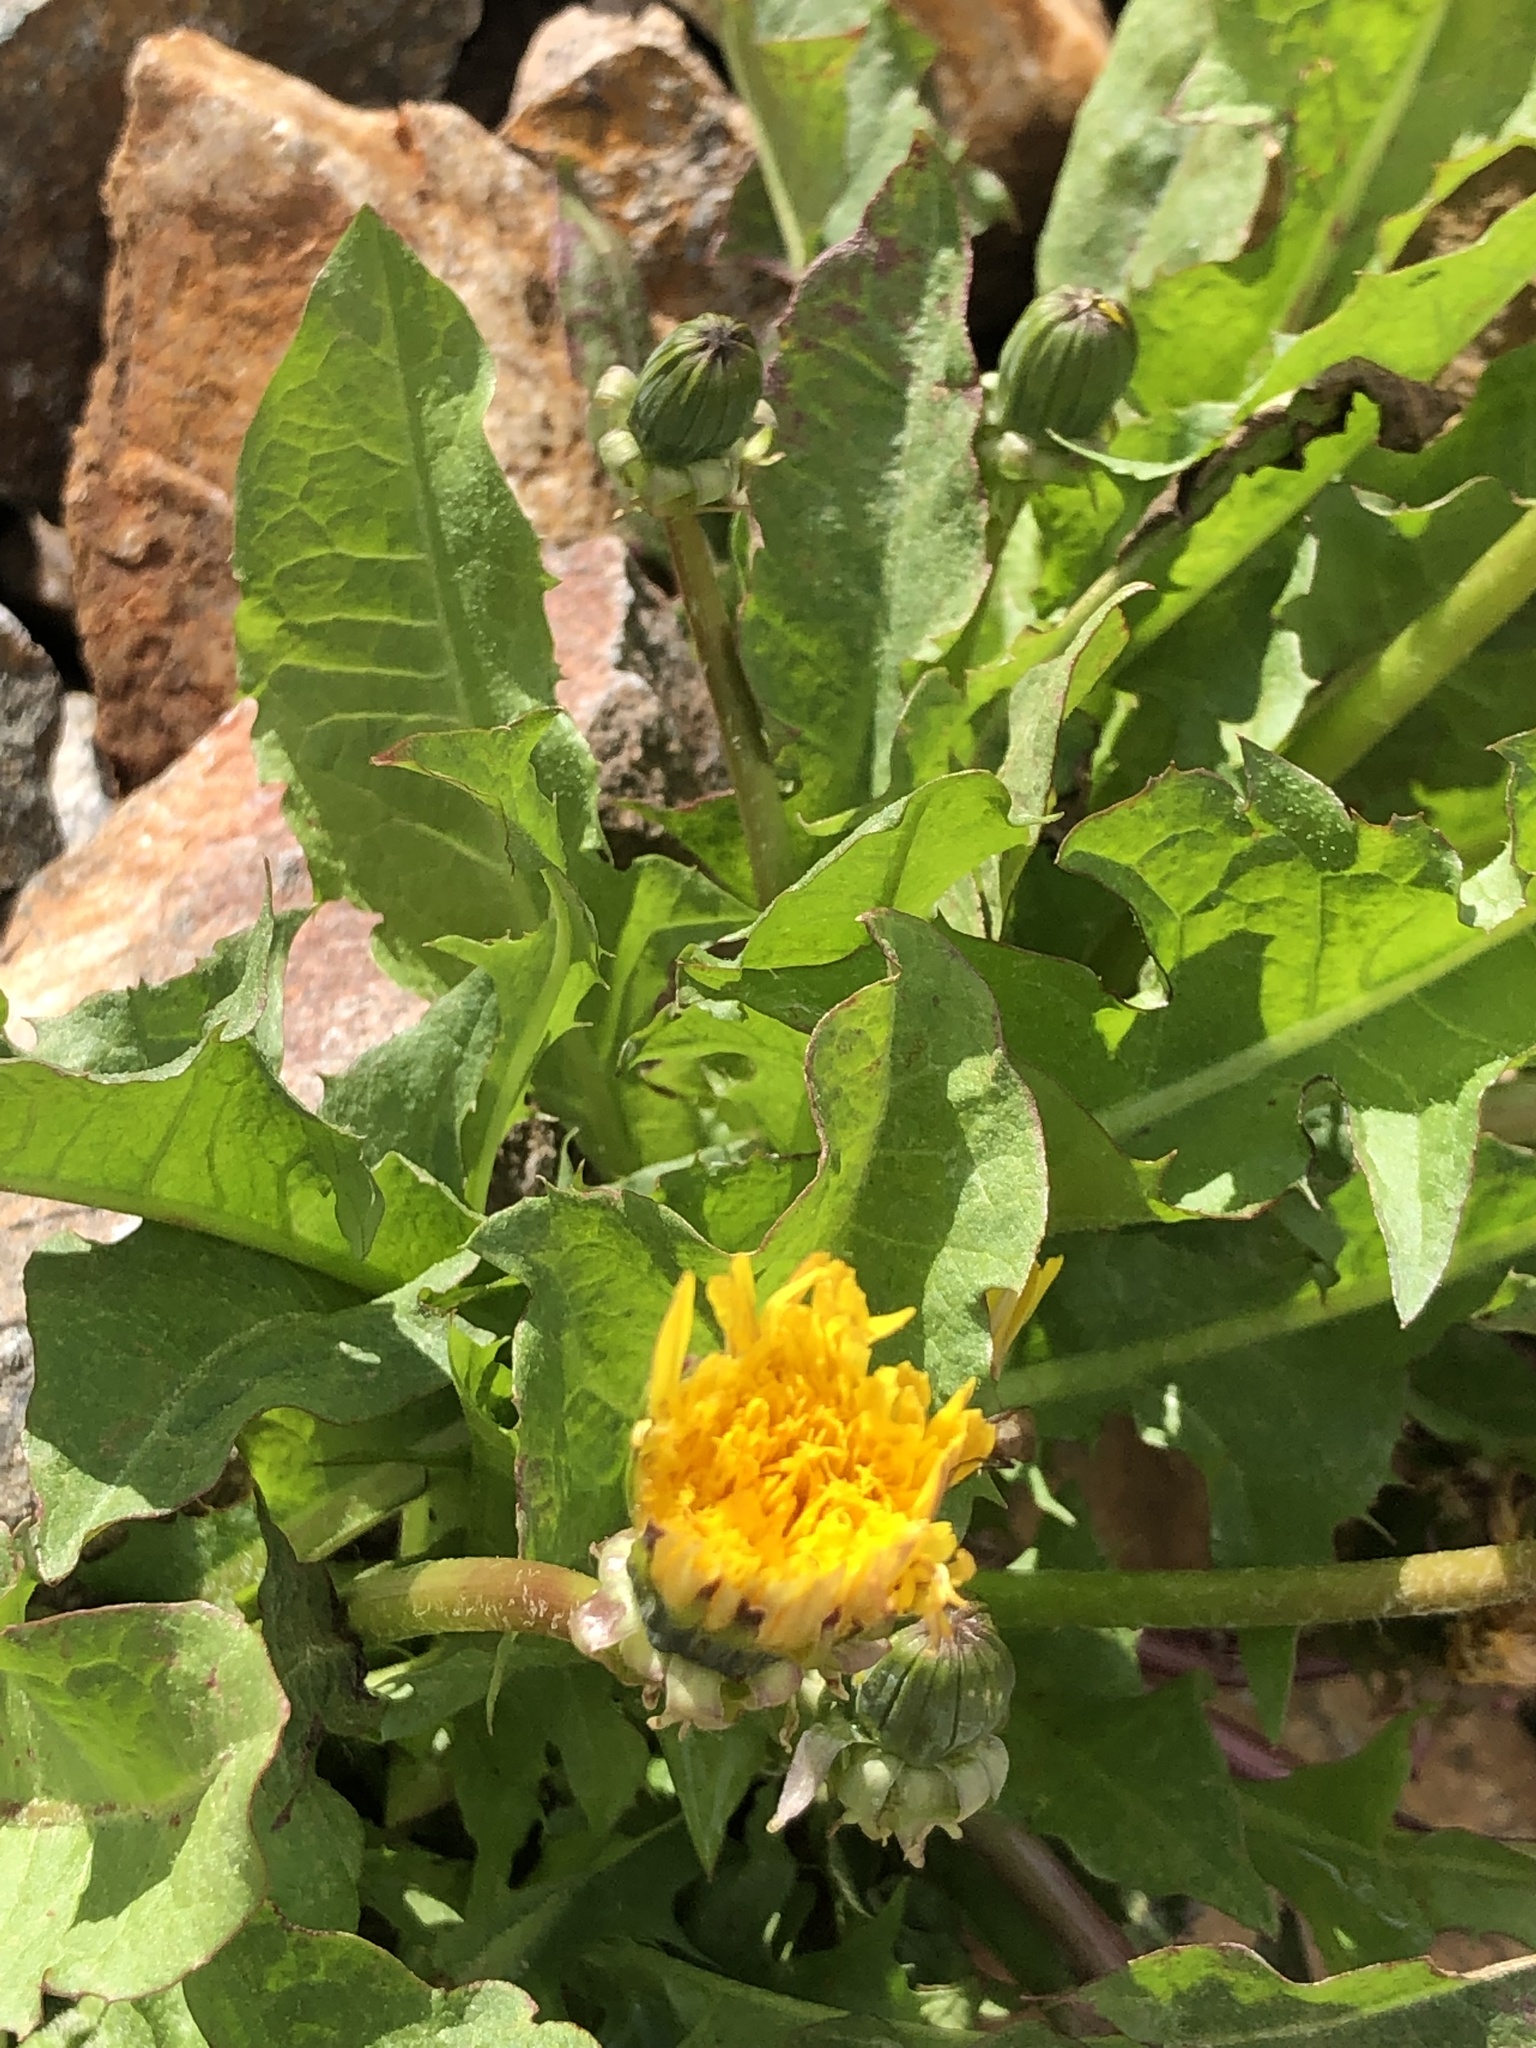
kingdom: Plantae
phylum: Tracheophyta
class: Magnoliopsida
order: Asterales
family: Asteraceae
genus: Taraxacum
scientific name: Taraxacum officinale
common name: Common dandelion
